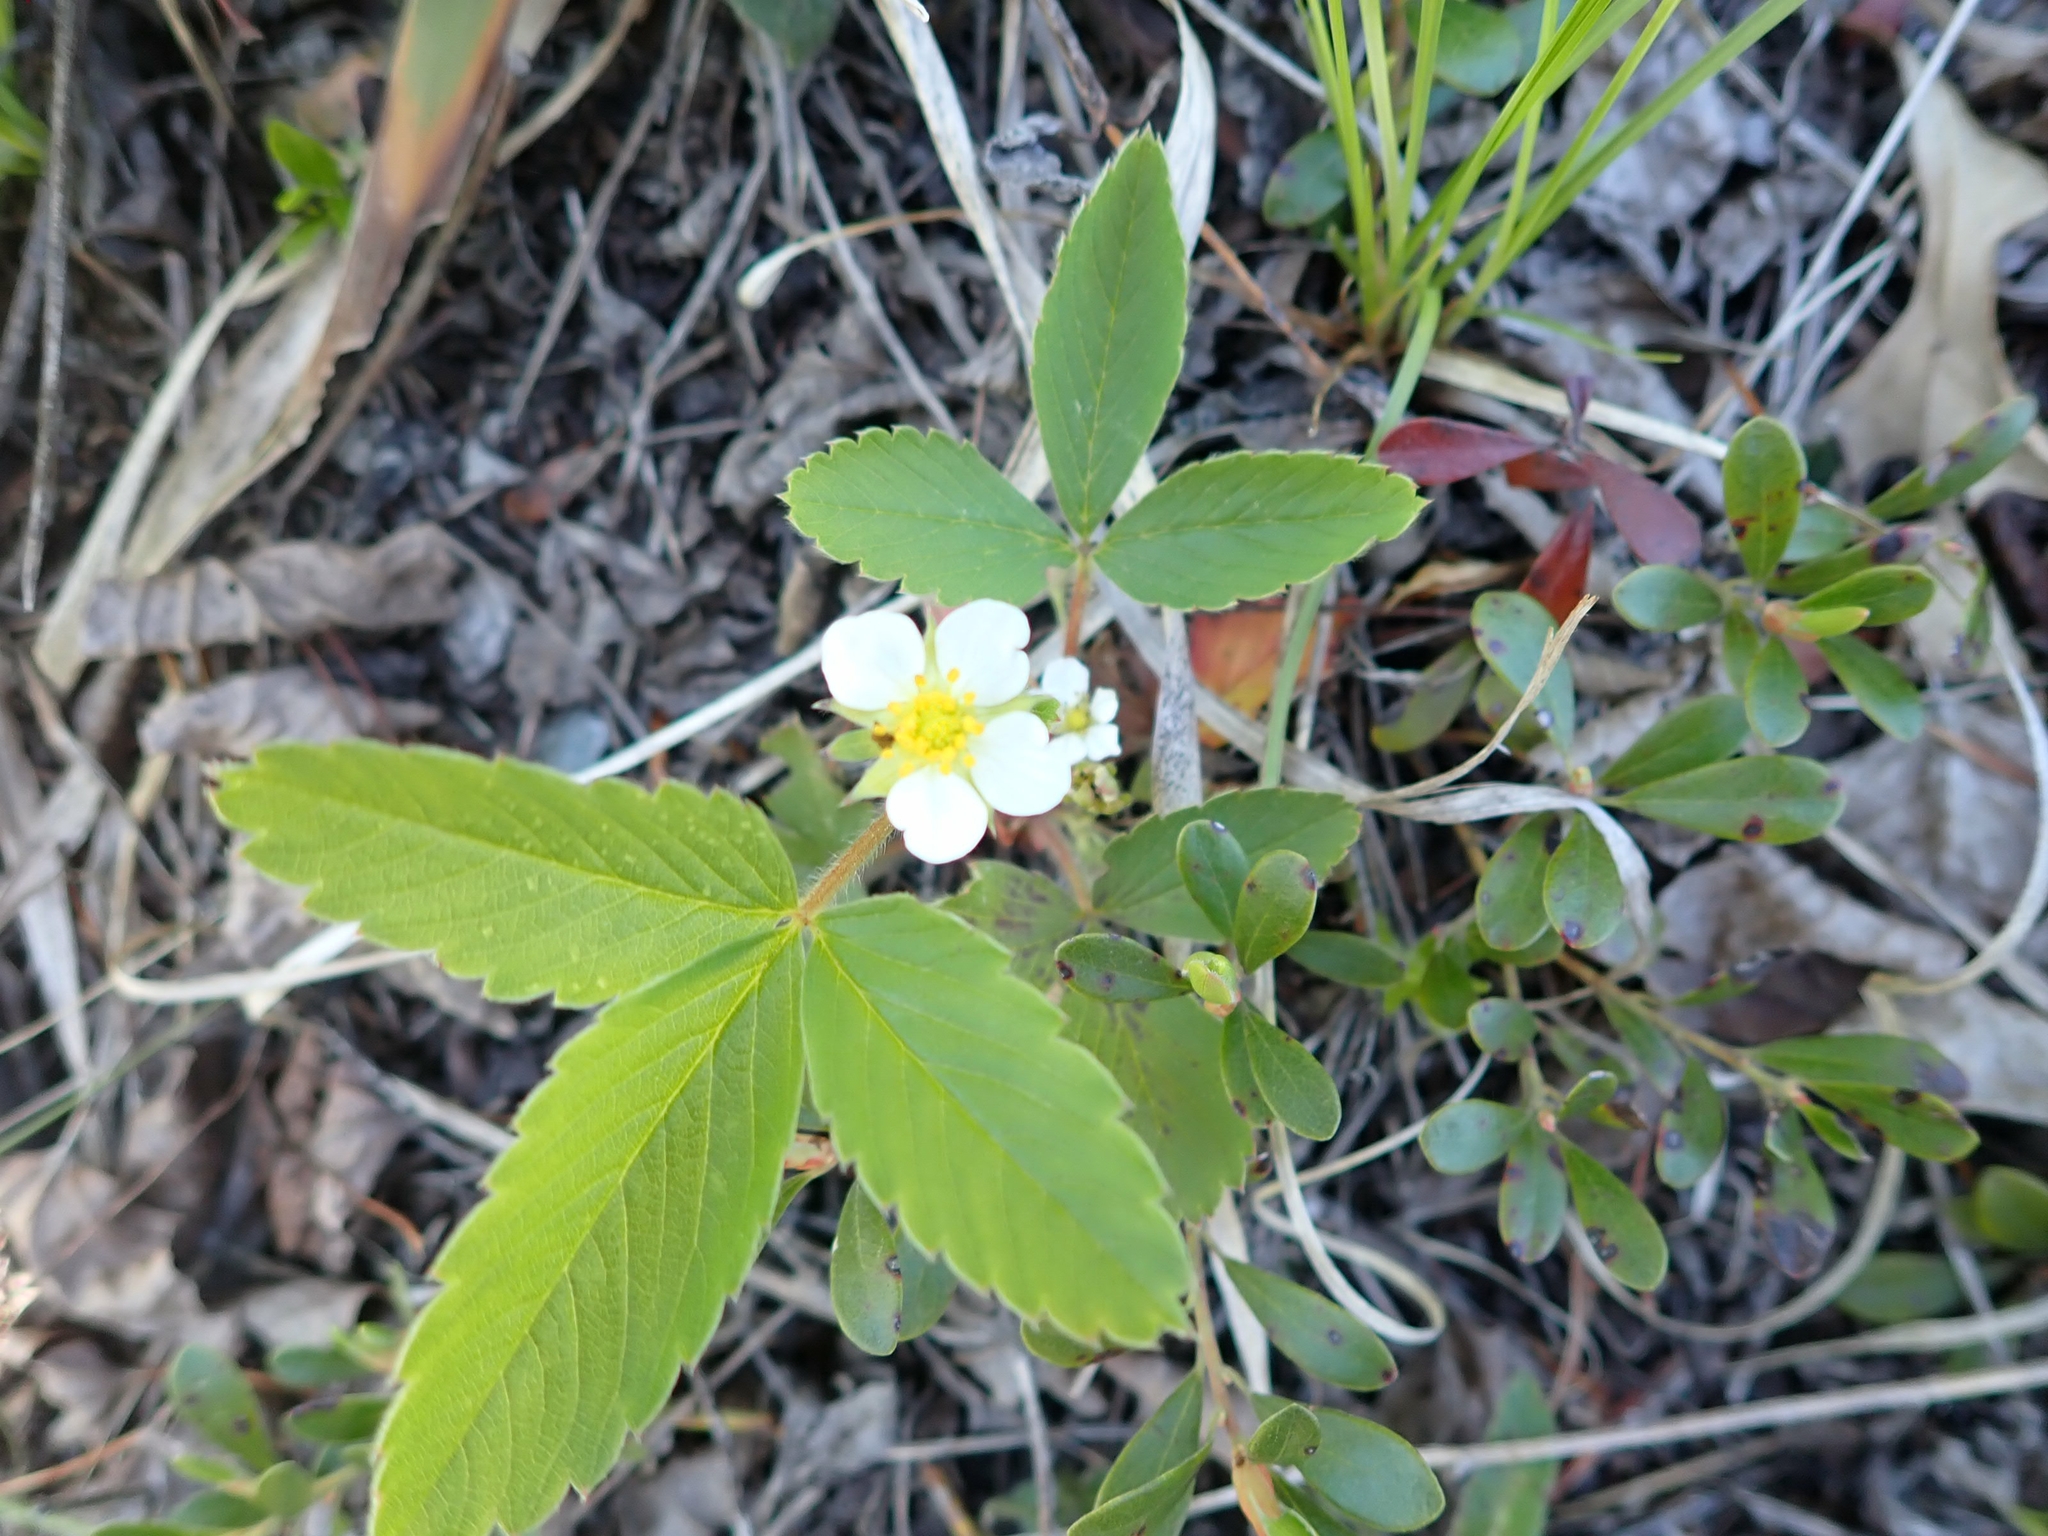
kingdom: Plantae
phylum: Tracheophyta
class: Magnoliopsida
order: Rosales
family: Rosaceae
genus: Fragaria
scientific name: Fragaria virginiana
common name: Thickleaved wild strawberry
